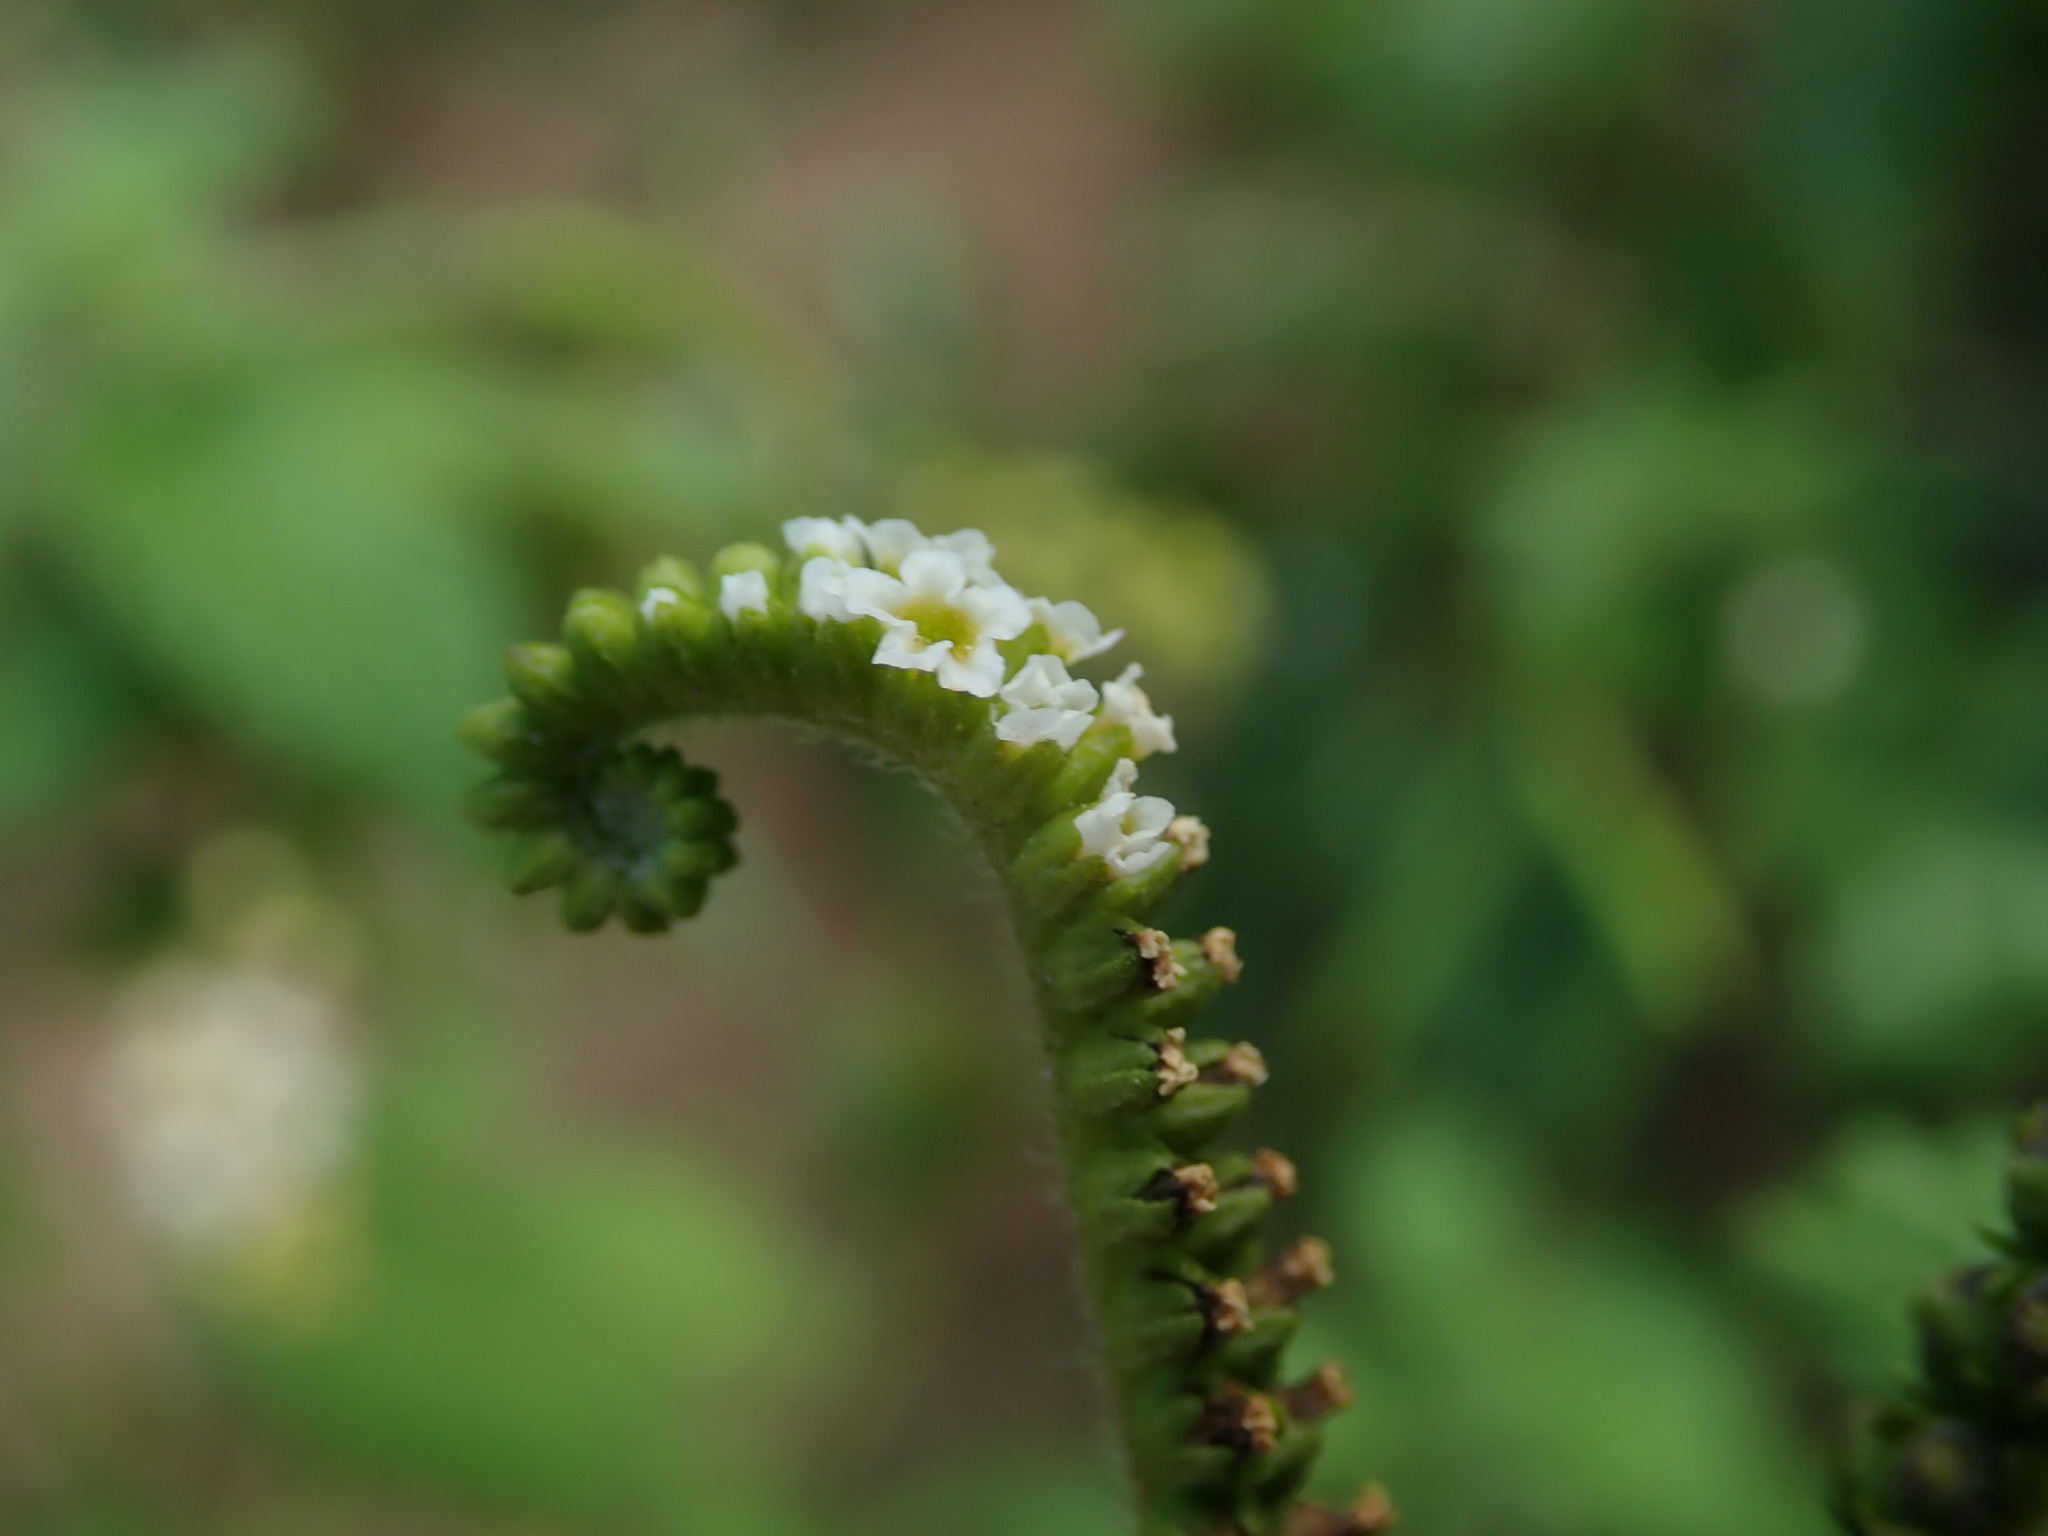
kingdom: Plantae
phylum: Tracheophyta
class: Magnoliopsida
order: Boraginales
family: Heliotropiaceae
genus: Heliotropium
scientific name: Heliotropium angiospermum
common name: Eye bright
